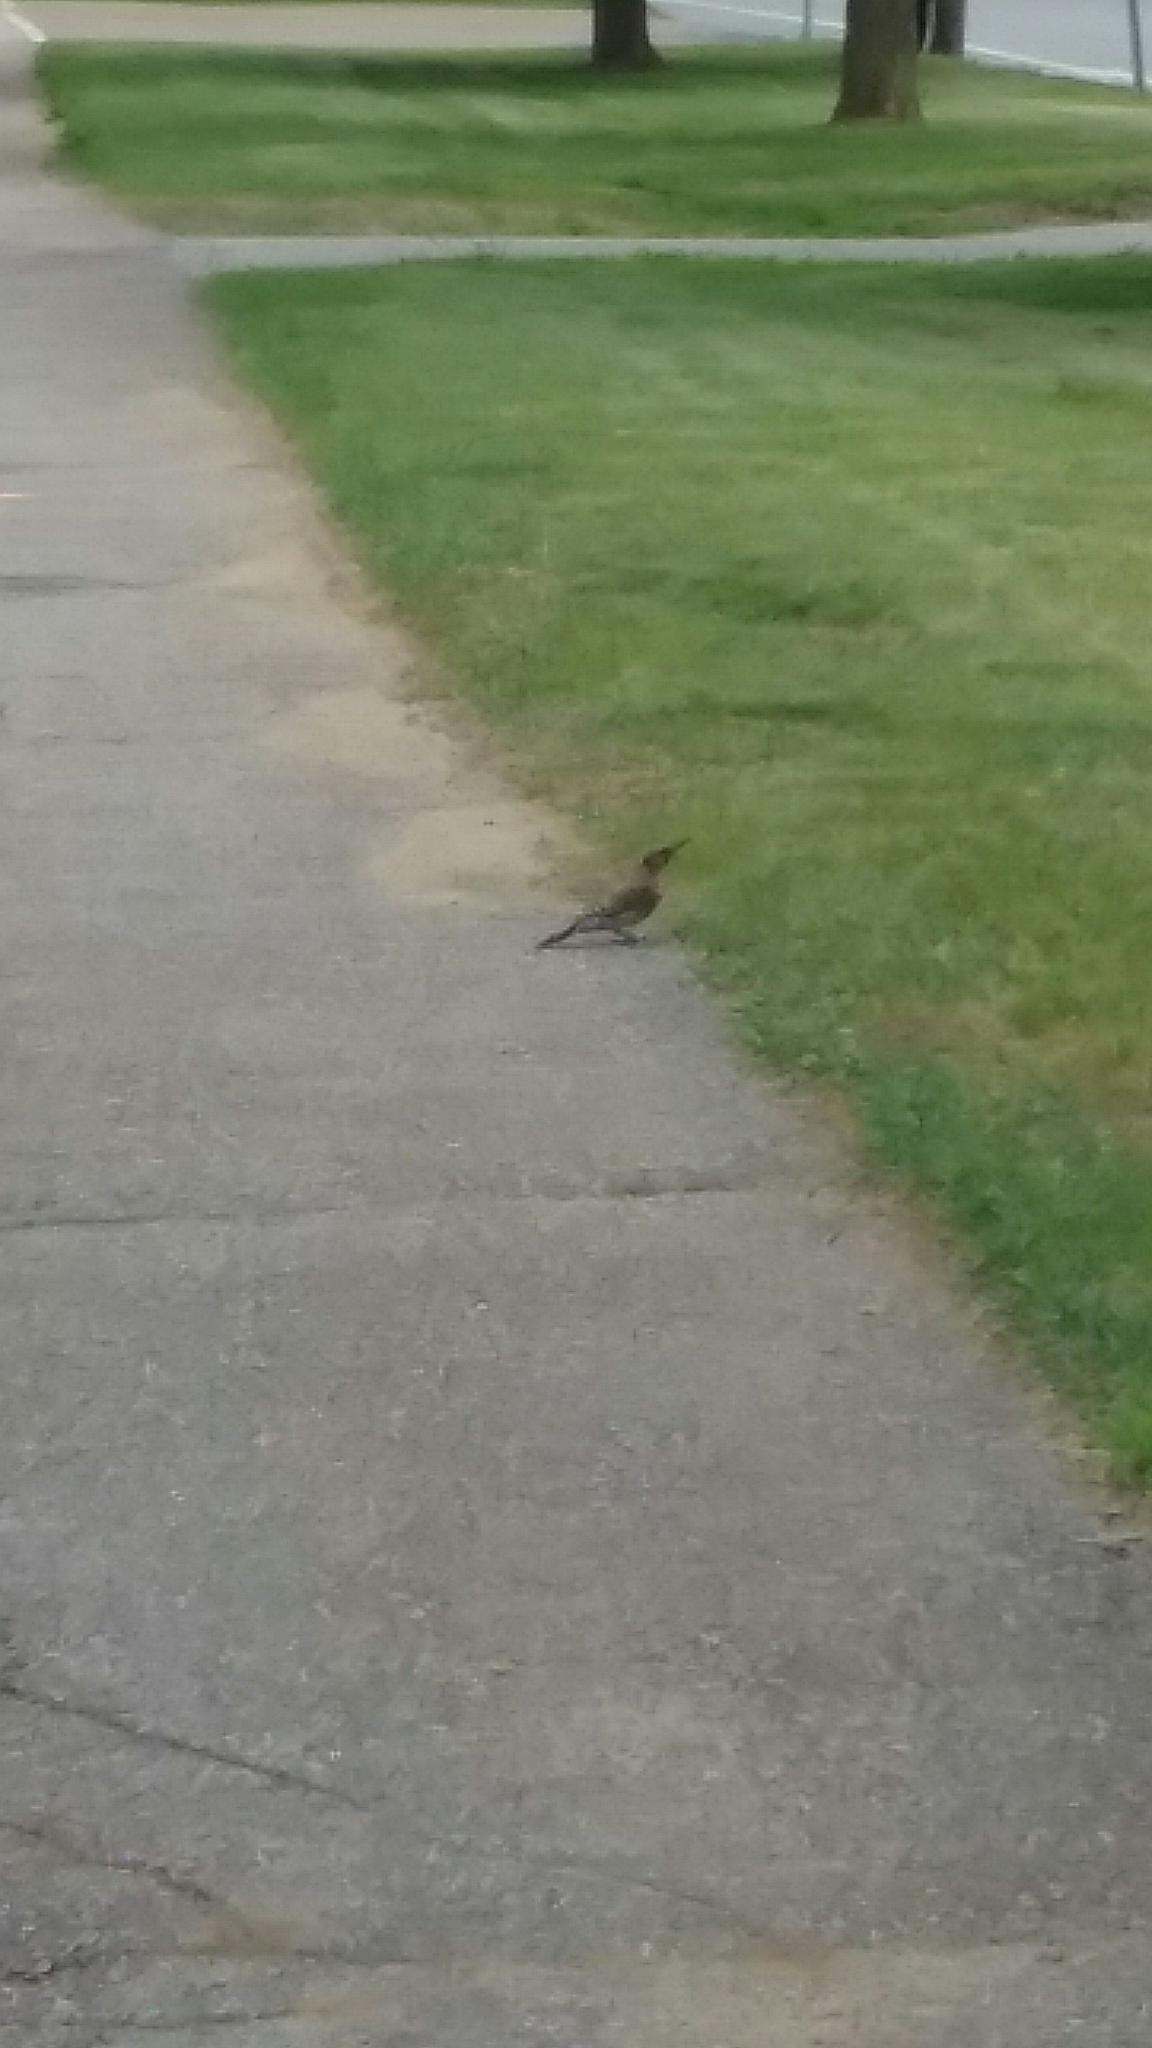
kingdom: Animalia
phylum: Chordata
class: Aves
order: Piciformes
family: Picidae
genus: Colaptes
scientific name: Colaptes auratus
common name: Northern flicker
